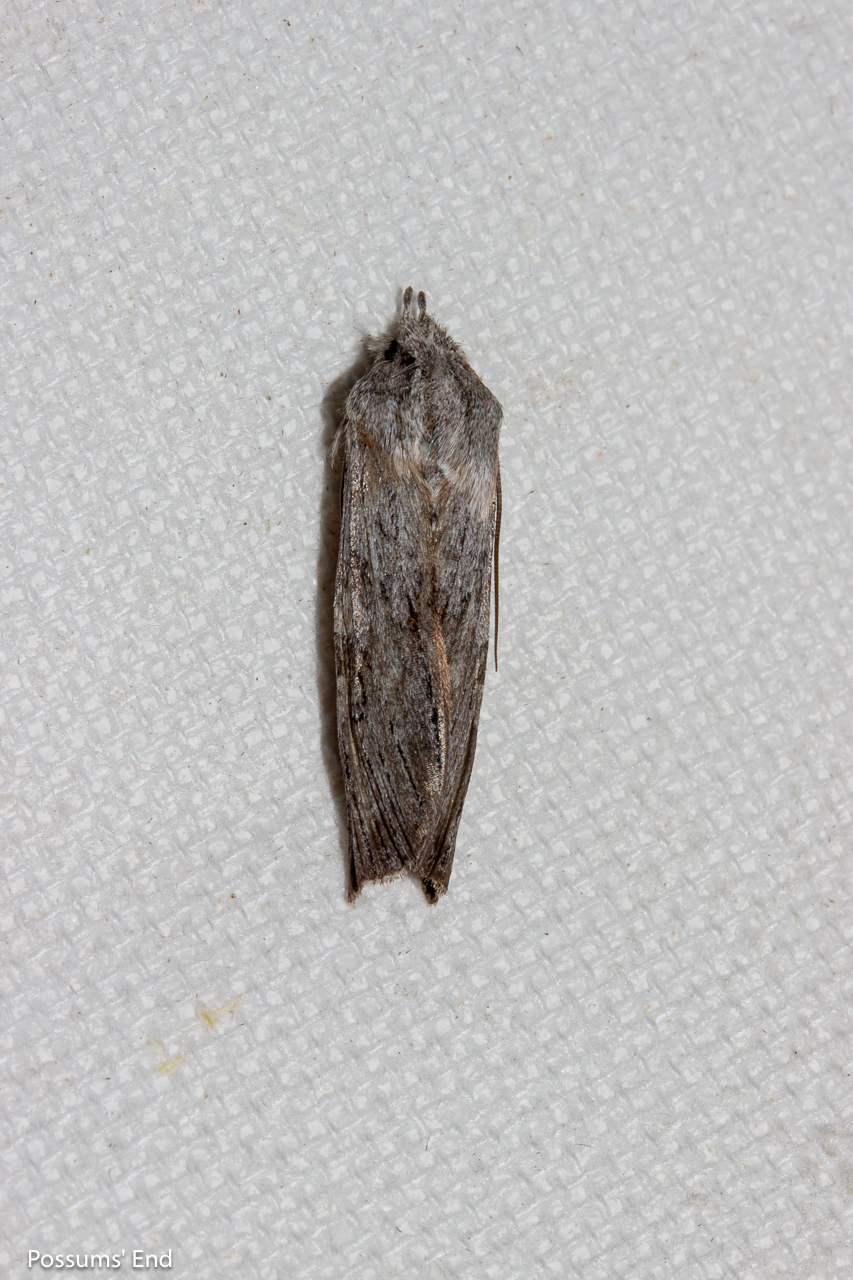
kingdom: Animalia
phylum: Arthropoda
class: Insecta
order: Lepidoptera
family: Noctuidae
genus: Physetica
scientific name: Physetica phricias
